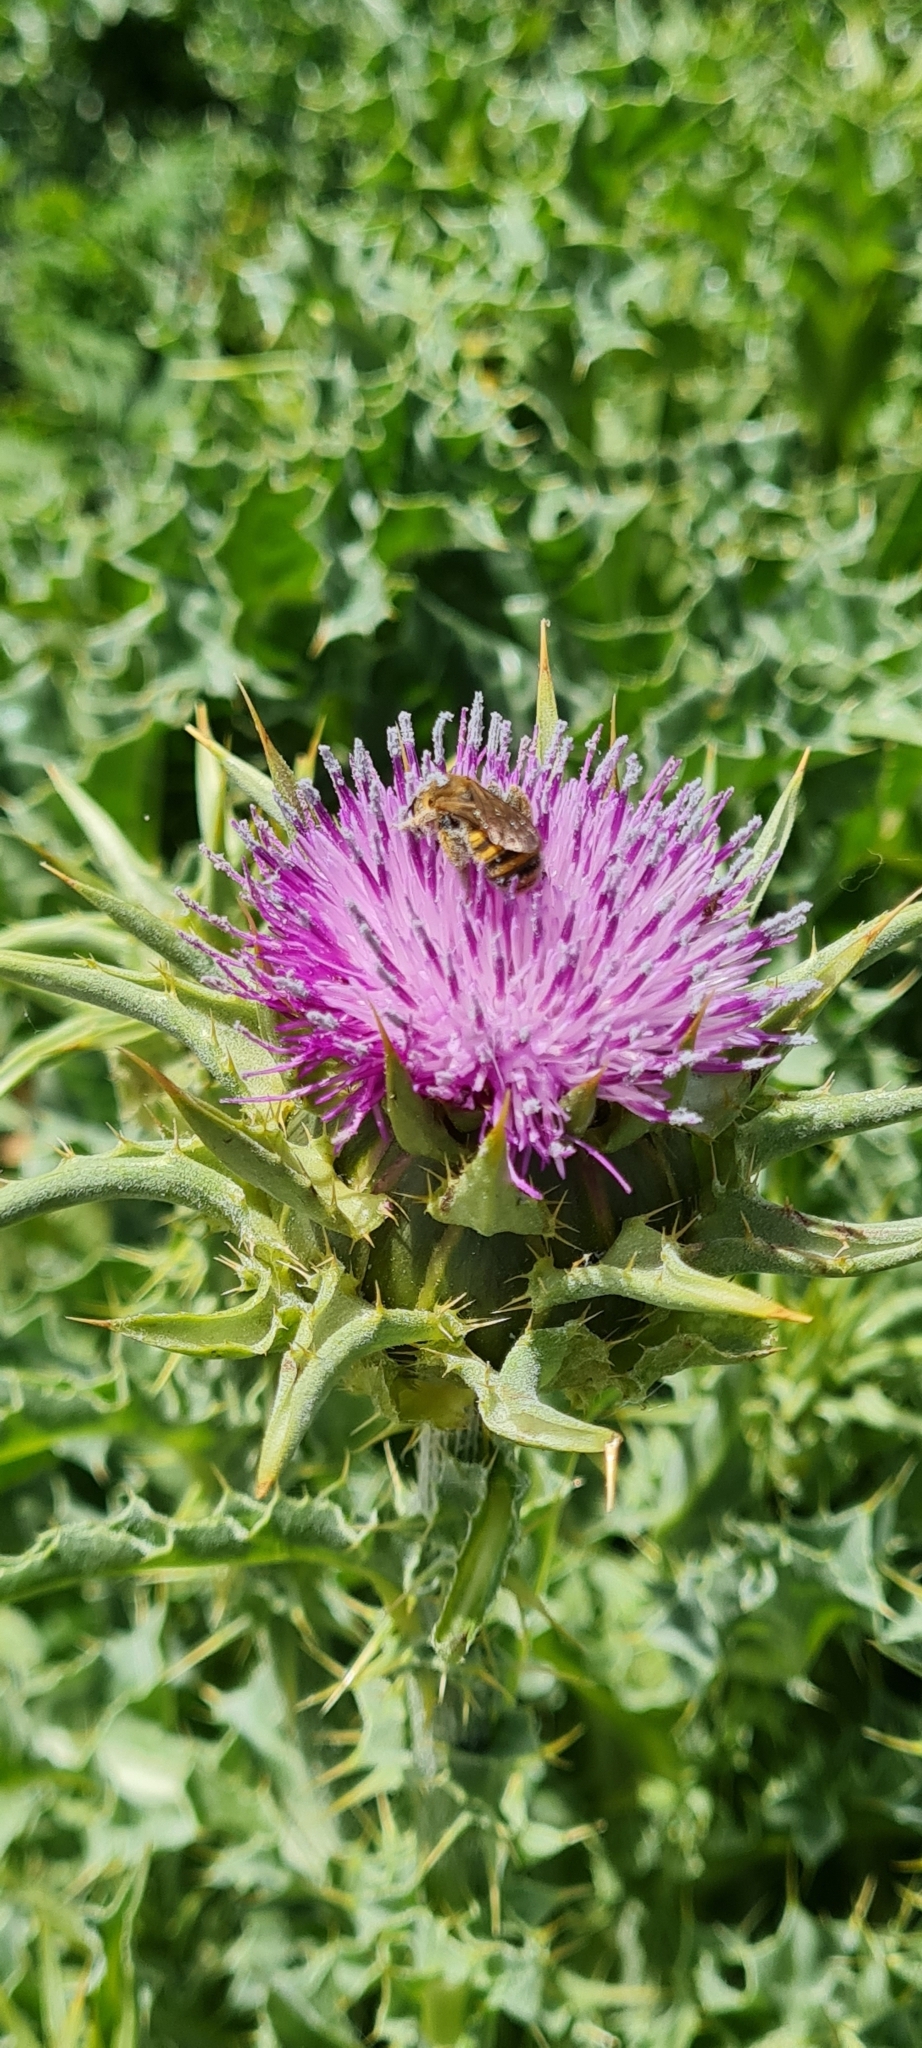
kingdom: Animalia
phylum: Arthropoda
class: Insecta
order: Hymenoptera
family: Halictidae
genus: Halictus
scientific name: Halictus scabiosae
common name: Great banded furrow bee
